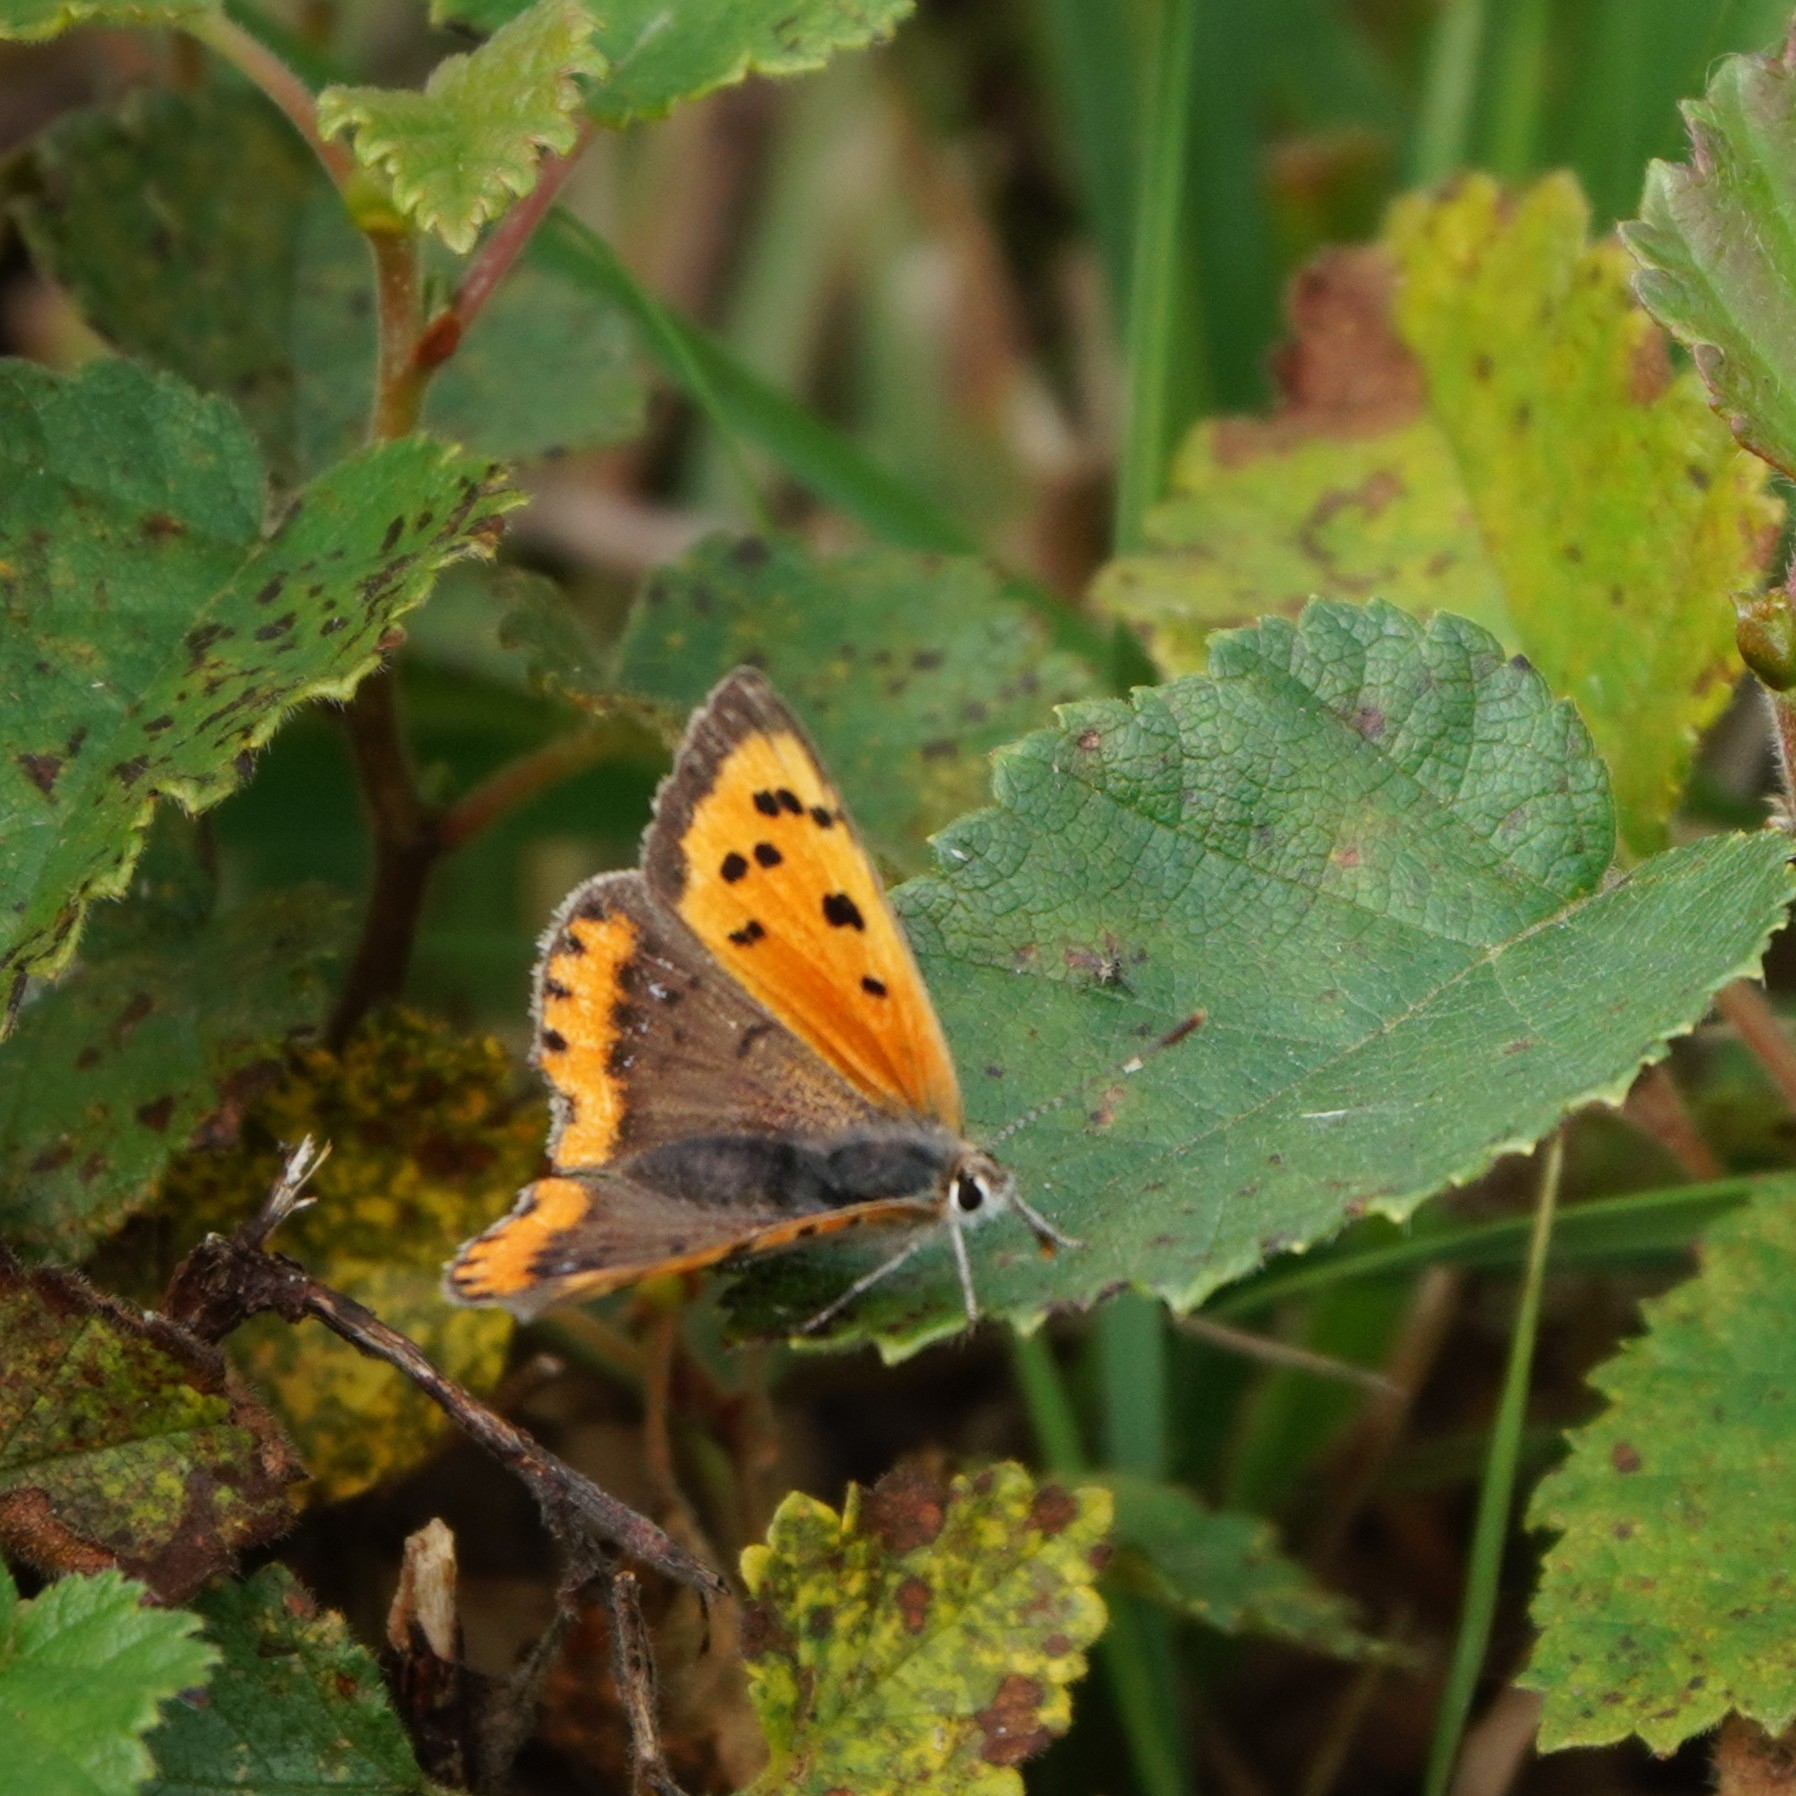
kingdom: Animalia
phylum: Arthropoda
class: Insecta
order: Lepidoptera
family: Lycaenidae
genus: Lycaena
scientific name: Lycaena phlaeas
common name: Small copper
